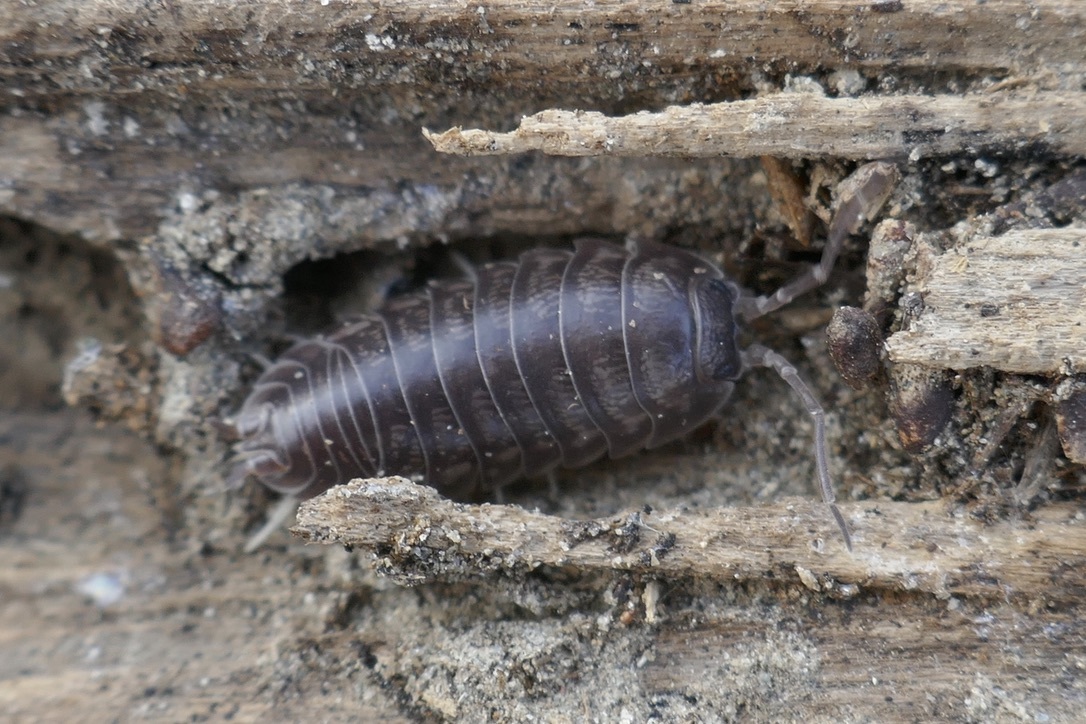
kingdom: Animalia
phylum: Arthropoda
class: Malacostraca
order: Isopoda
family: Cylisticidae
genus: Cylisticus
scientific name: Cylisticus convexus
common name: Curly woodlouse
